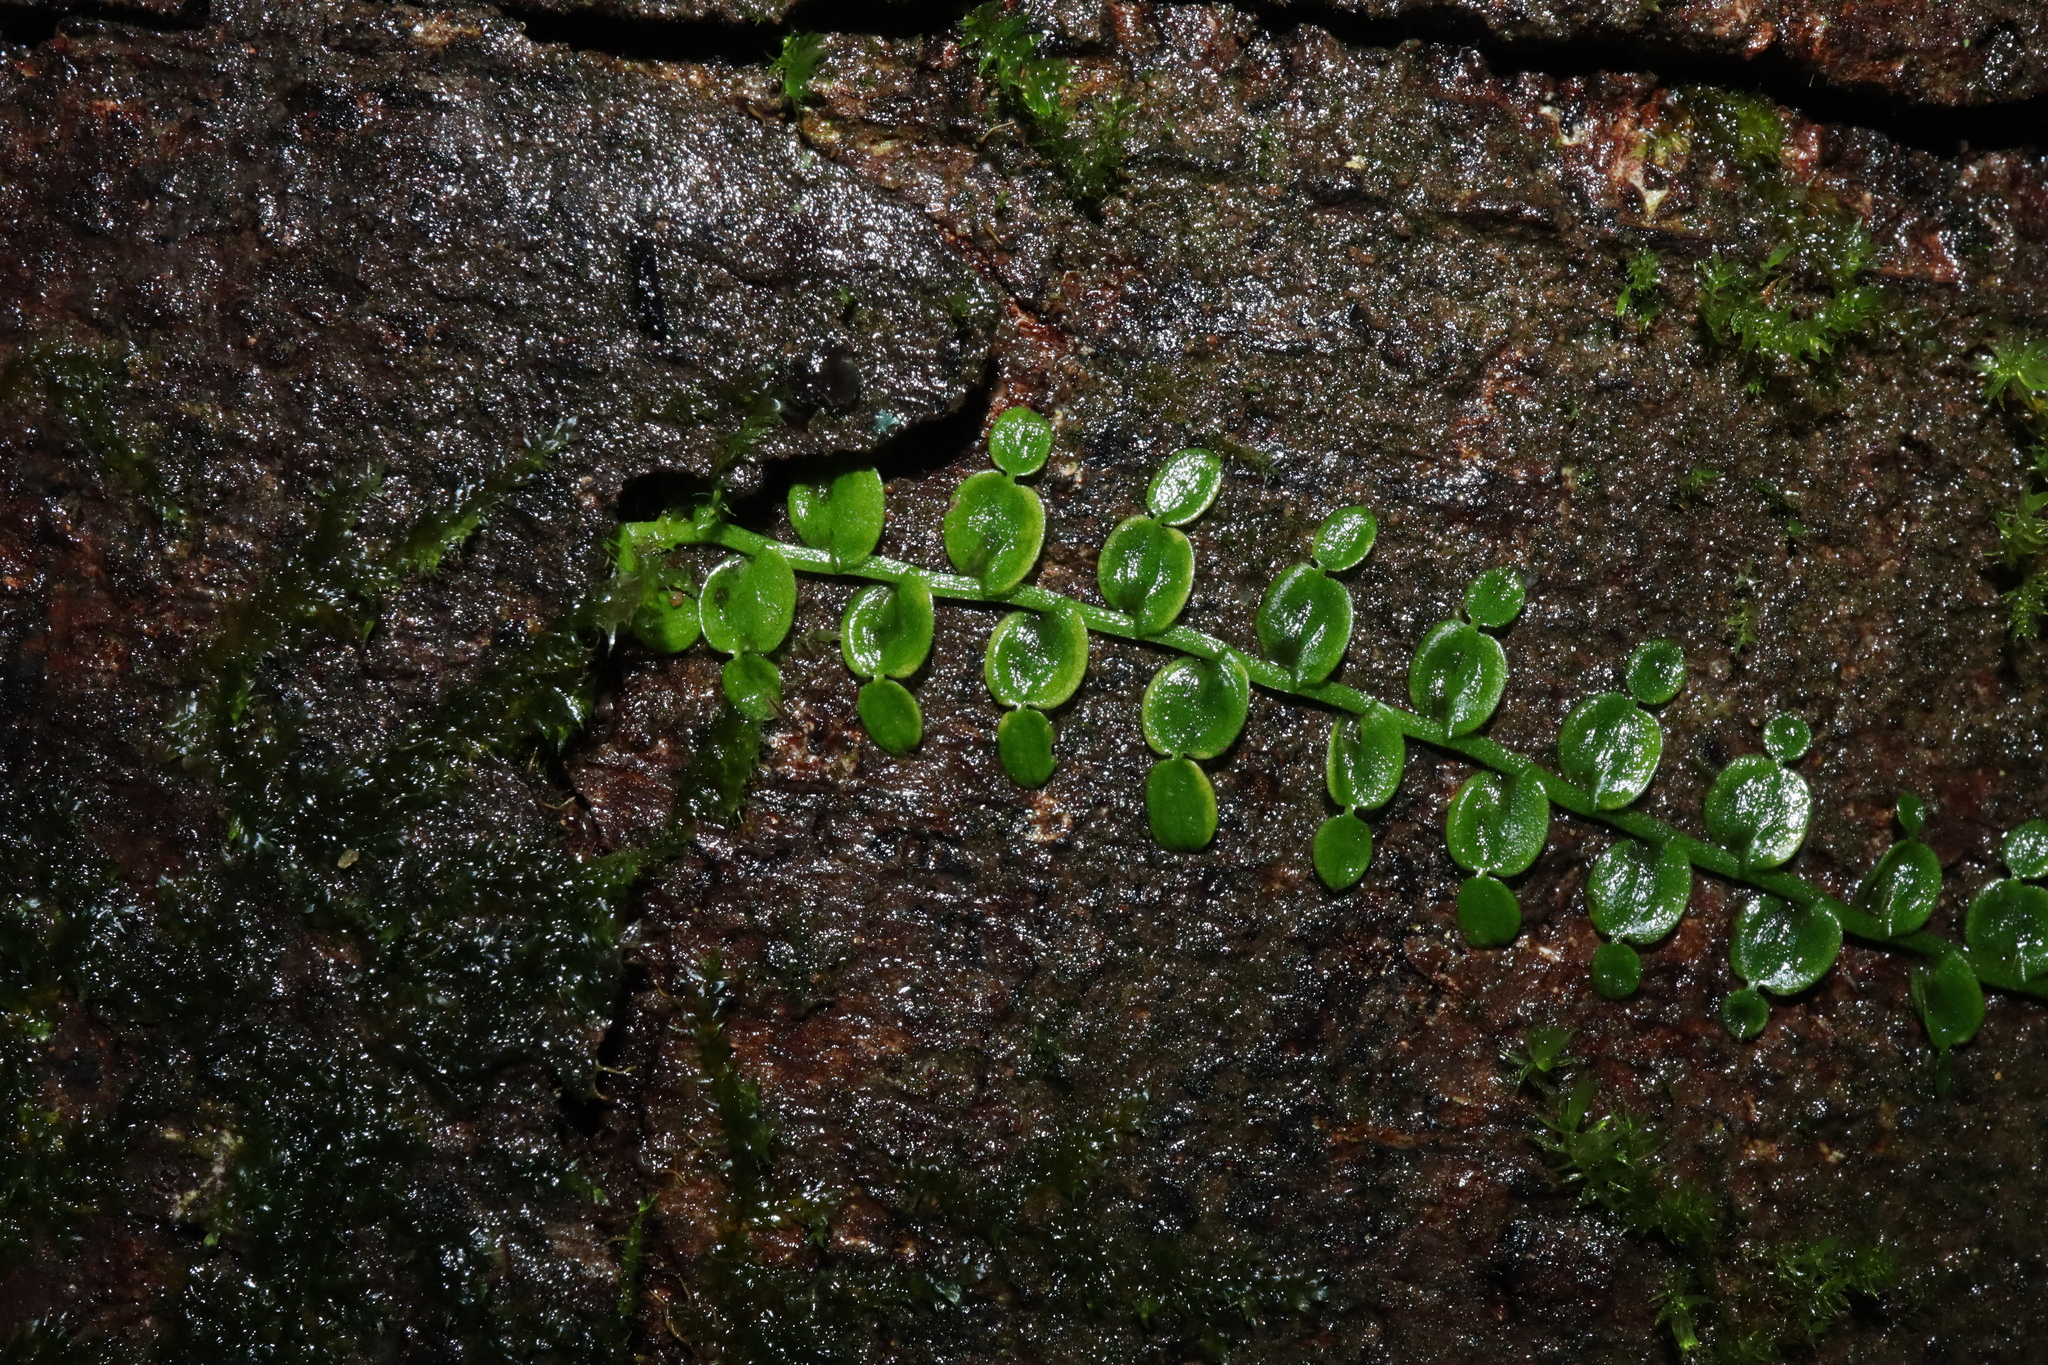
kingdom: Plantae
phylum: Tracheophyta
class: Liliopsida
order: Alismatales
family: Araceae
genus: Pothos
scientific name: Pothos longipes
